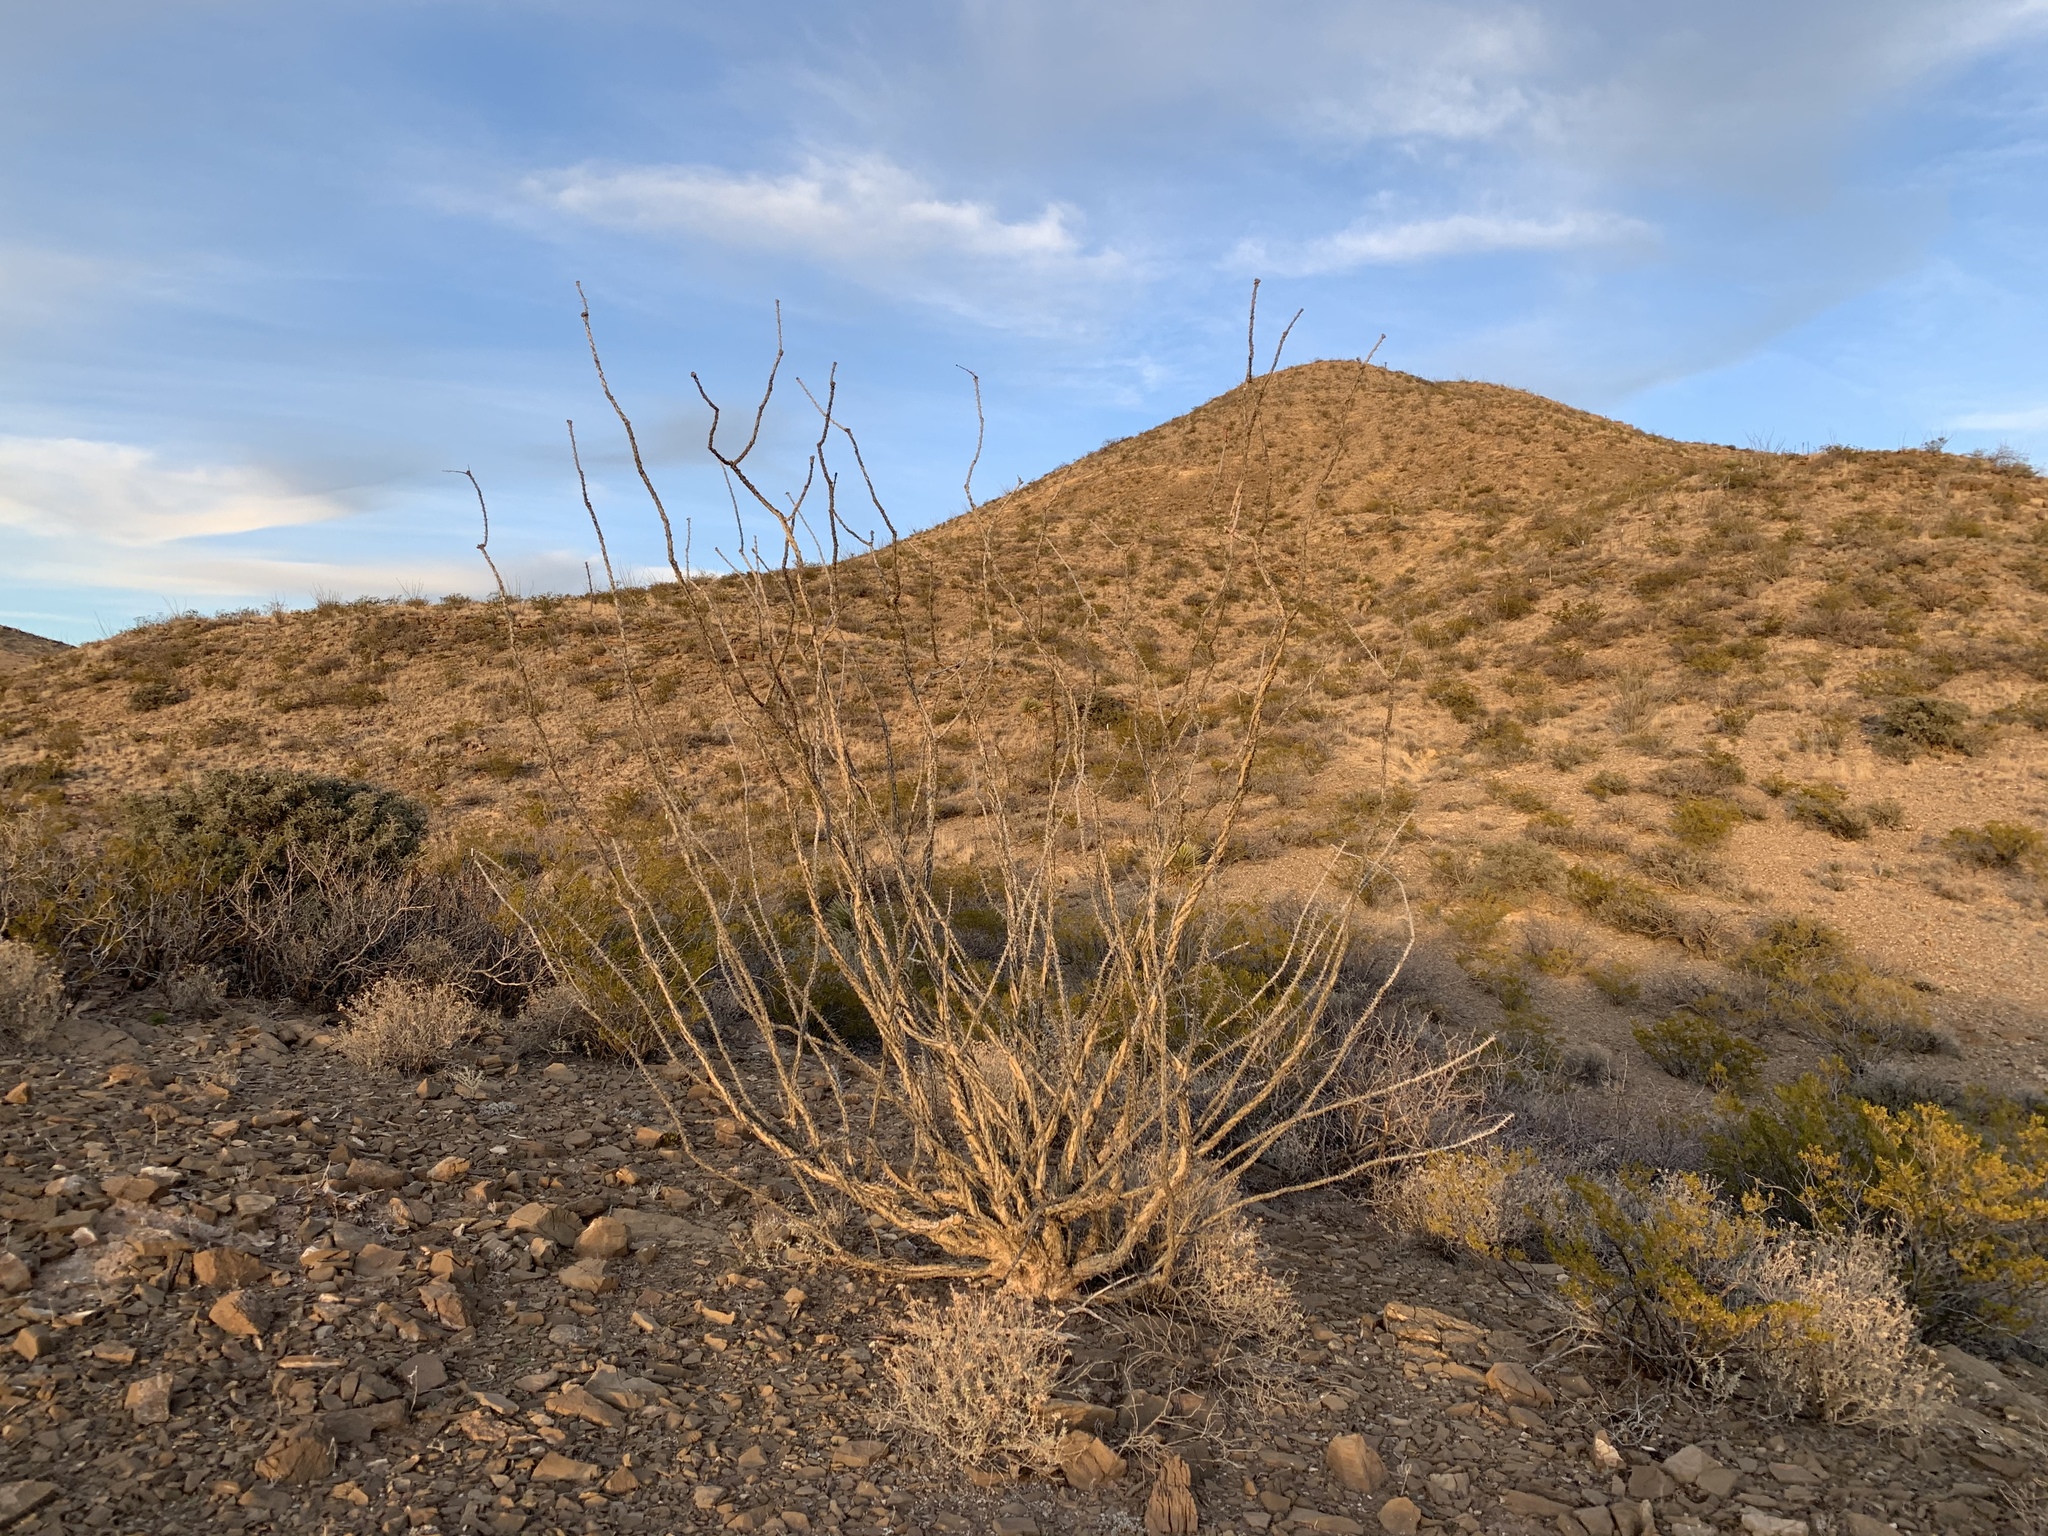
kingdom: Plantae
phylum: Tracheophyta
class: Magnoliopsida
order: Ericales
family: Fouquieriaceae
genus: Fouquieria
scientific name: Fouquieria splendens
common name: Vine-cactus
